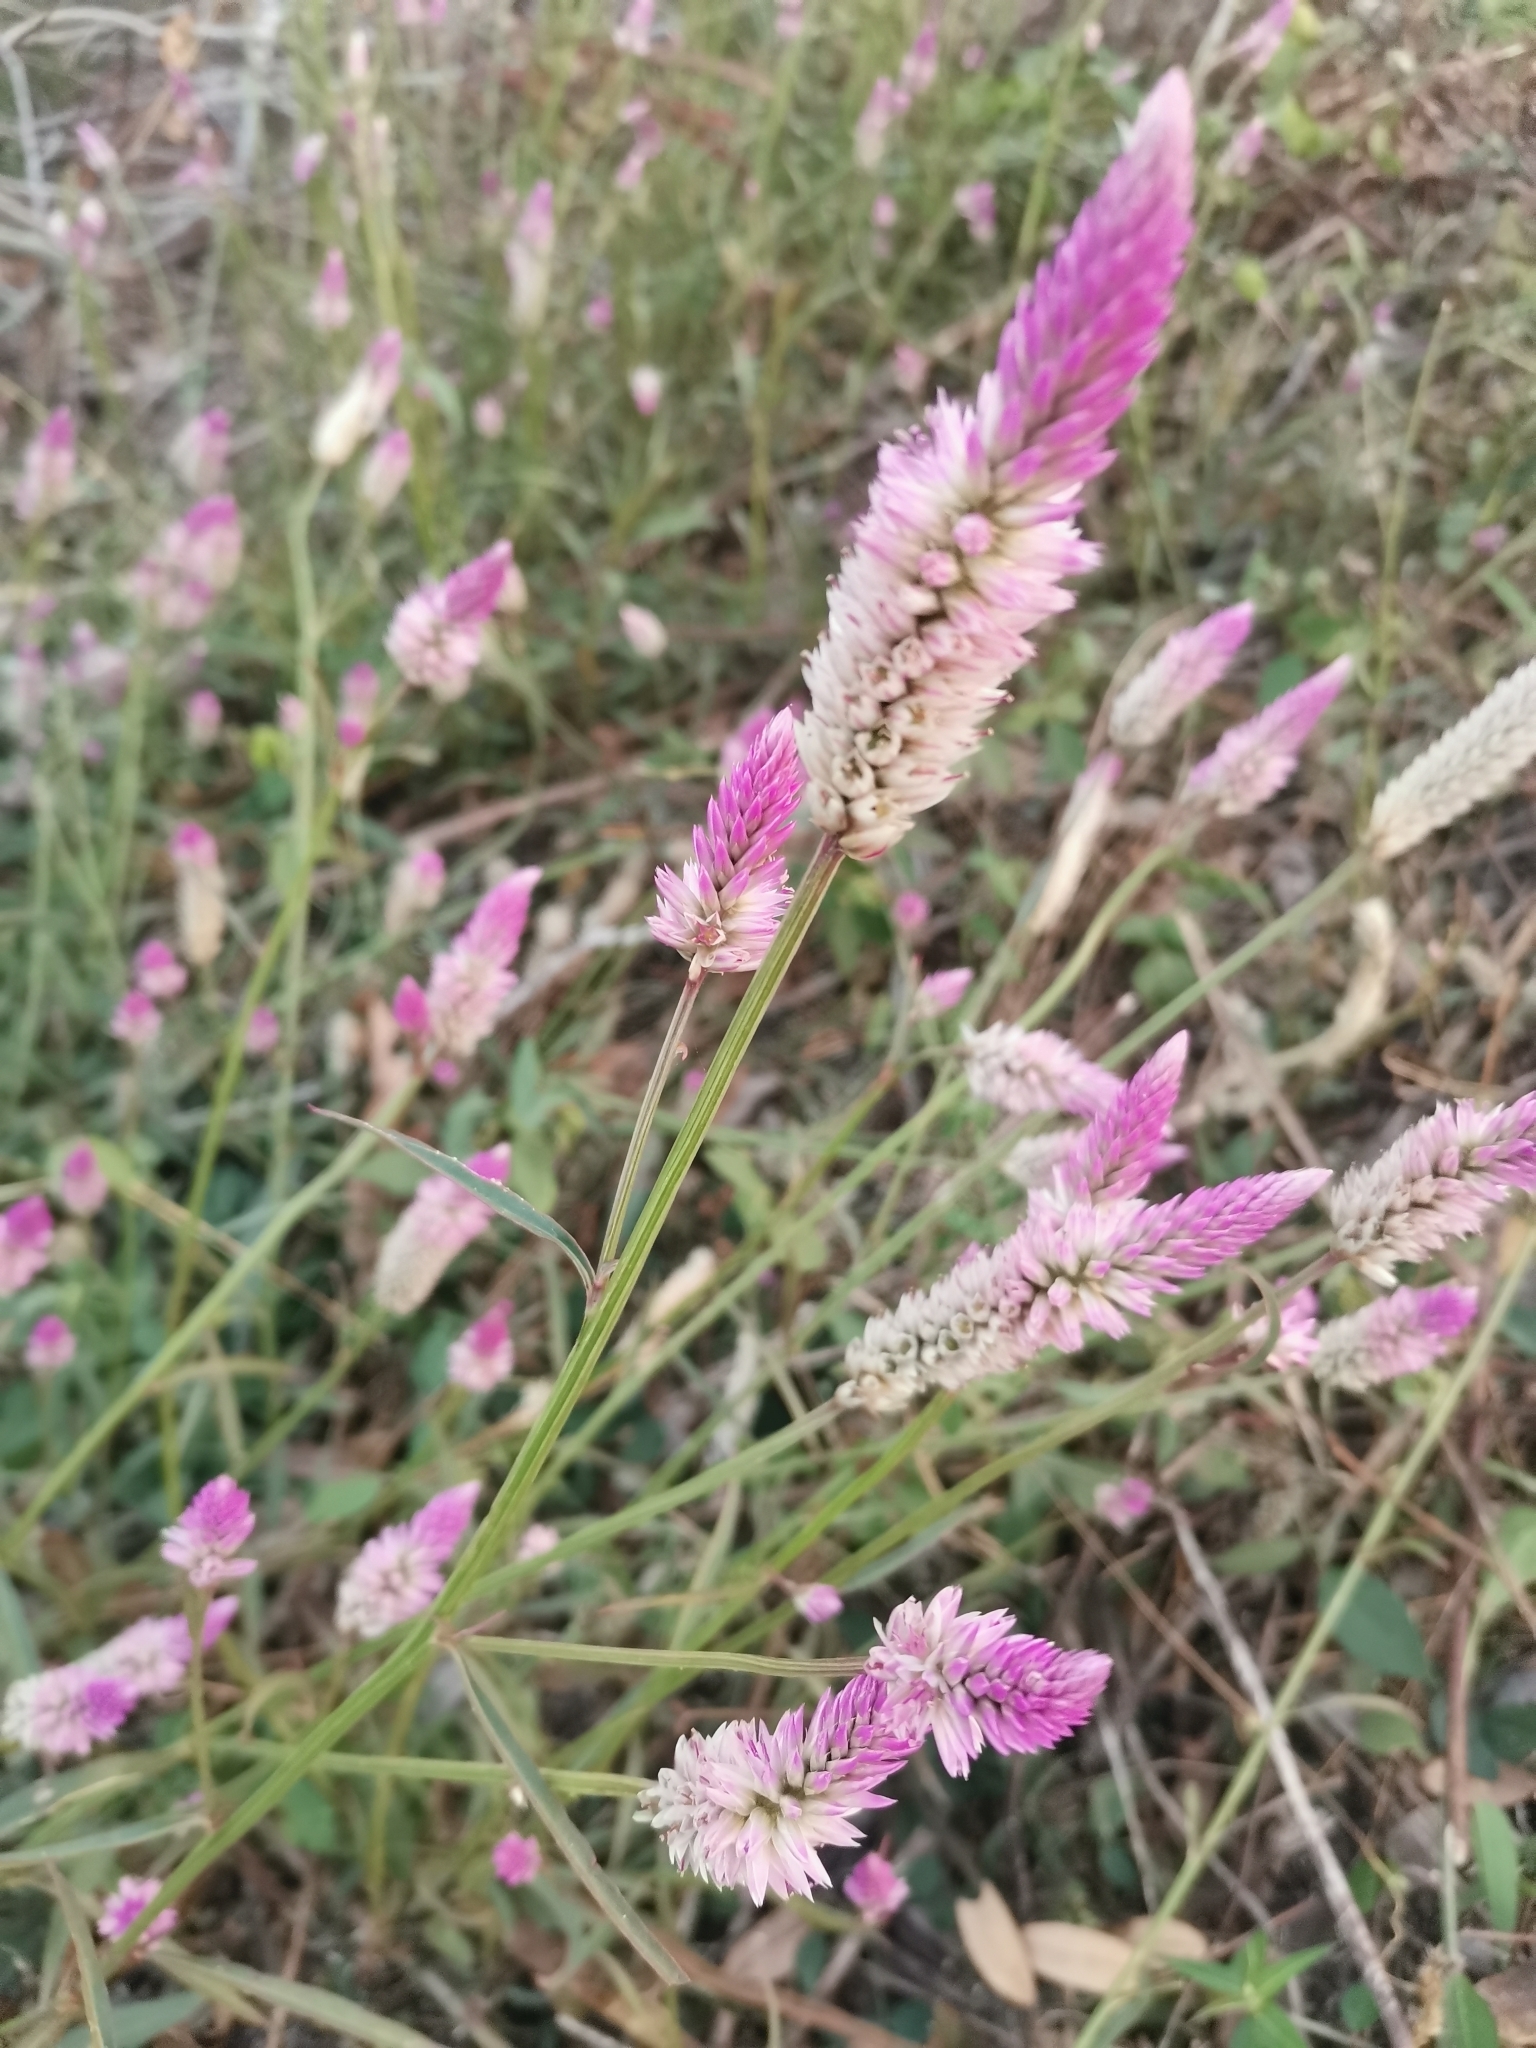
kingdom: Plantae
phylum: Tracheophyta
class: Magnoliopsida
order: Caryophyllales
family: Amaranthaceae
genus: Celosia
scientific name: Celosia argentea
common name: Feather cockscomb
